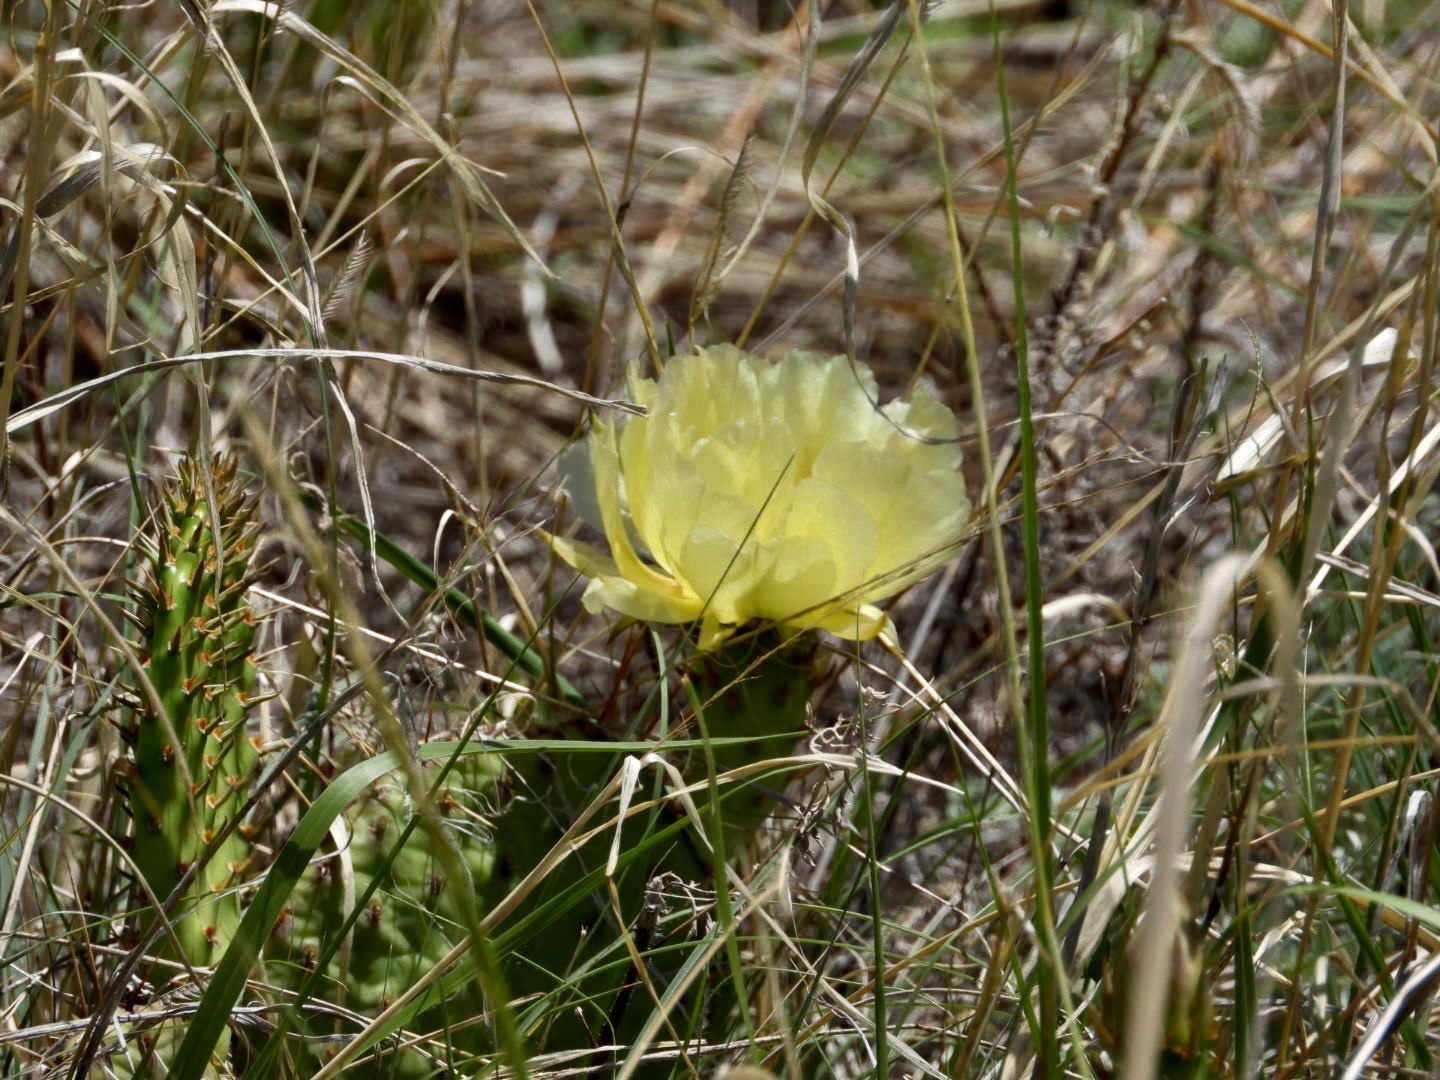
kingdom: Plantae
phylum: Tracheophyta
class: Magnoliopsida
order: Caryophyllales
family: Cactaceae
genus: Opuntia
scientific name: Opuntia polyacantha
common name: Plains prickly-pear
